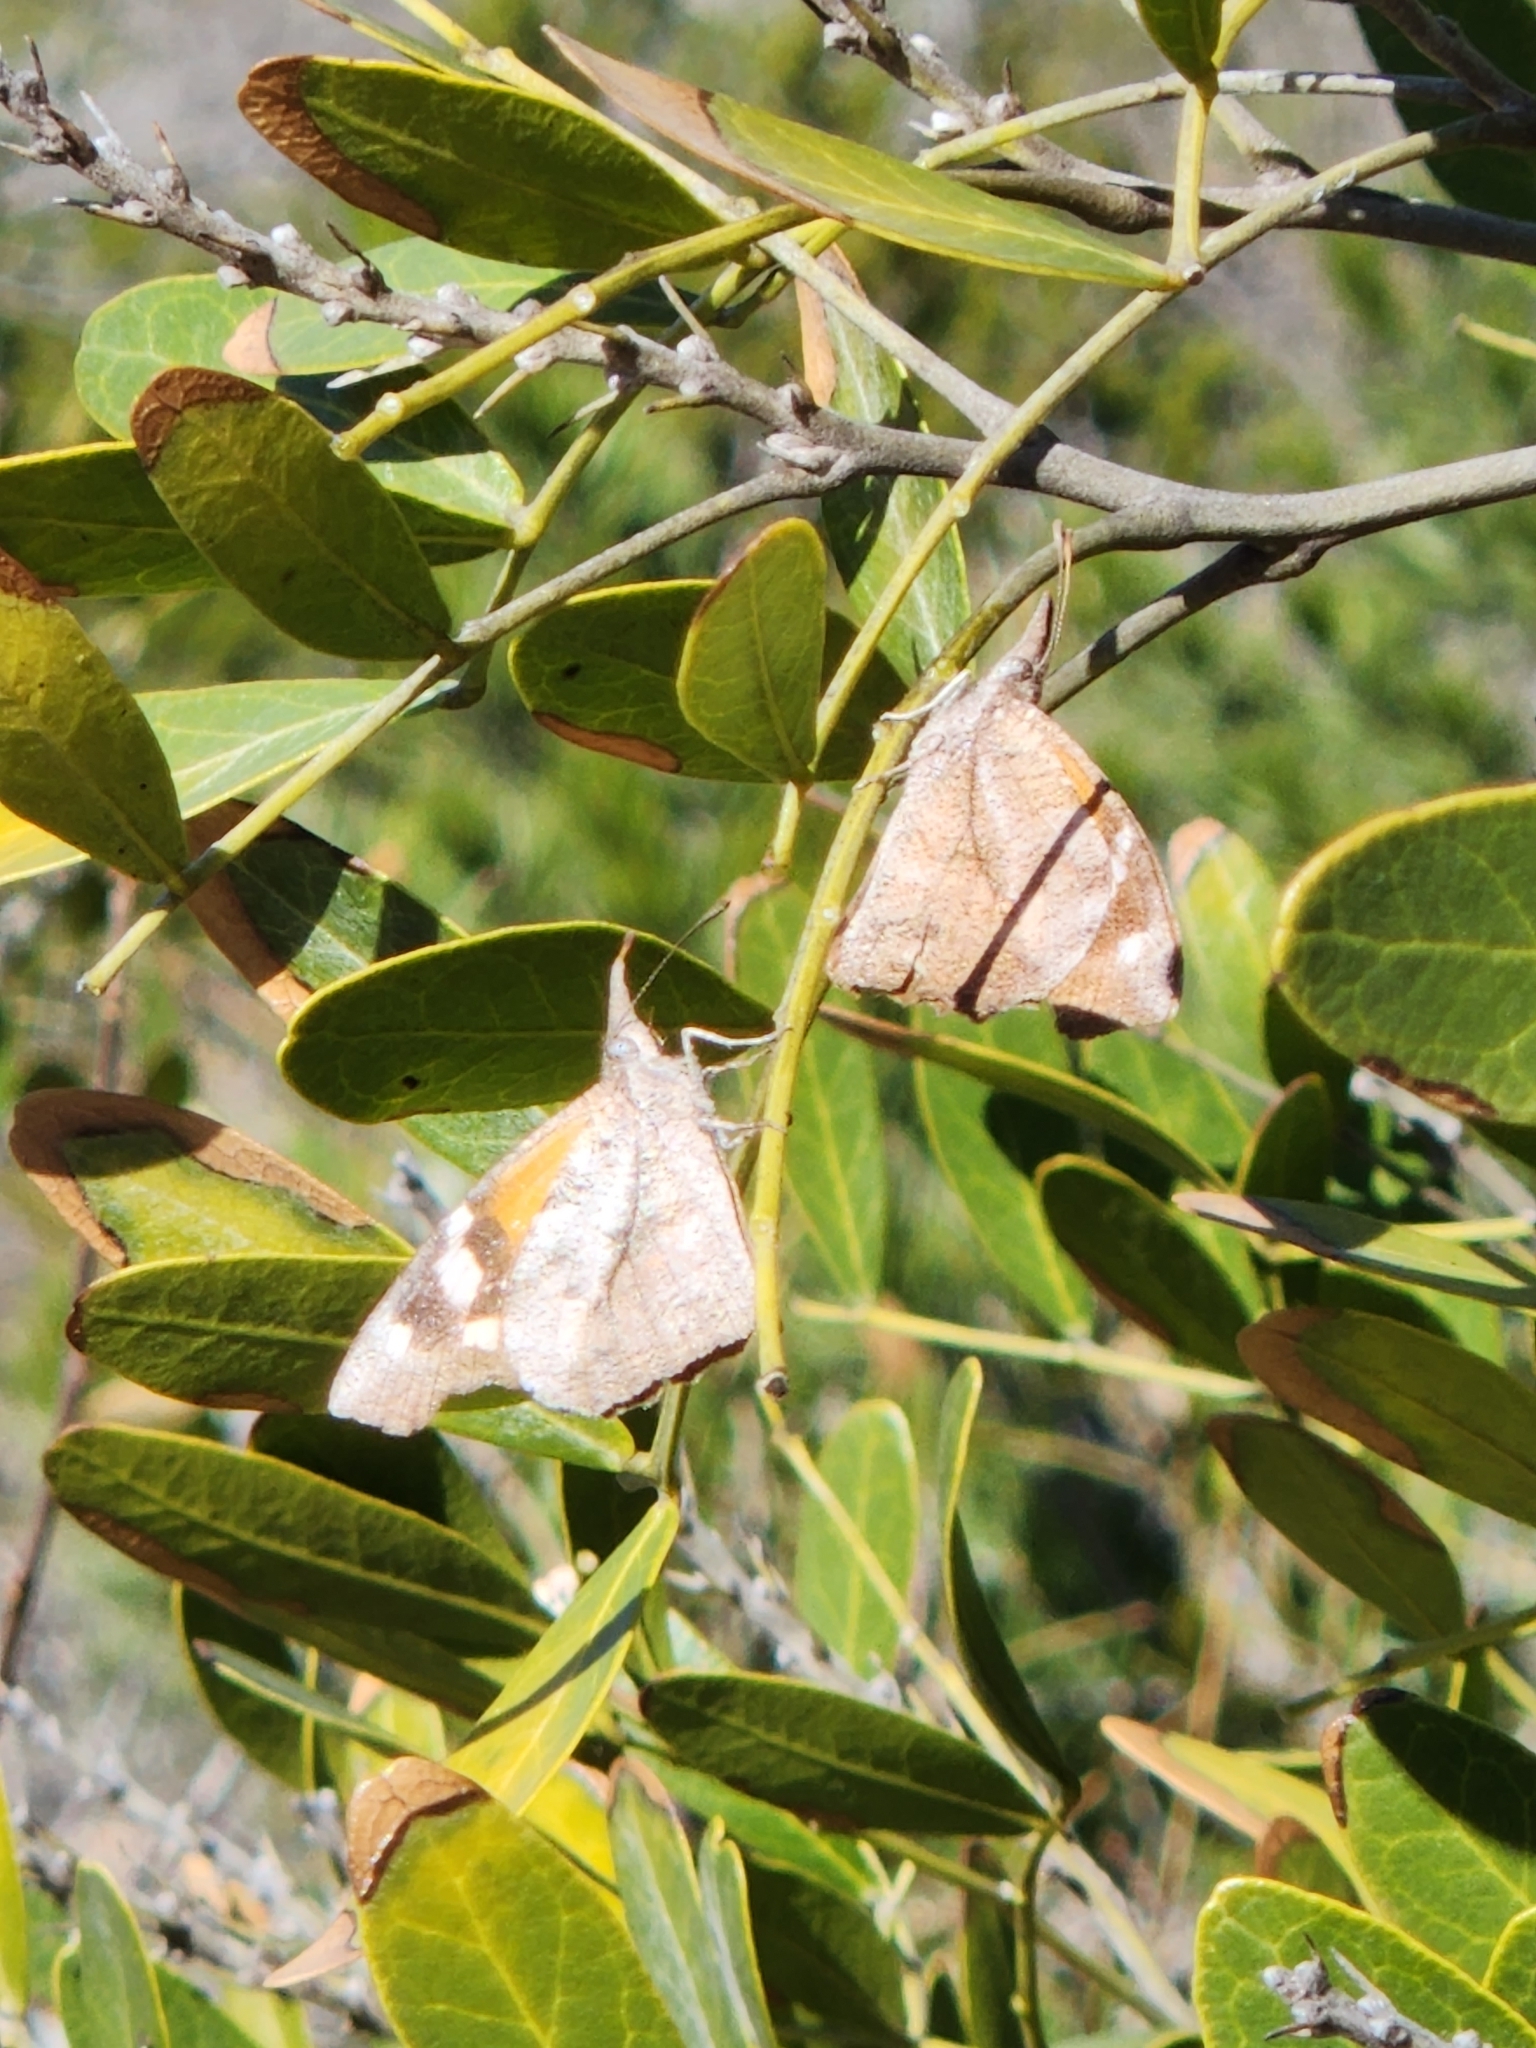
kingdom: Animalia
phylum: Arthropoda
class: Insecta
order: Lepidoptera
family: Nymphalidae
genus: Libytheana
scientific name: Libytheana carinenta
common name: American snout
